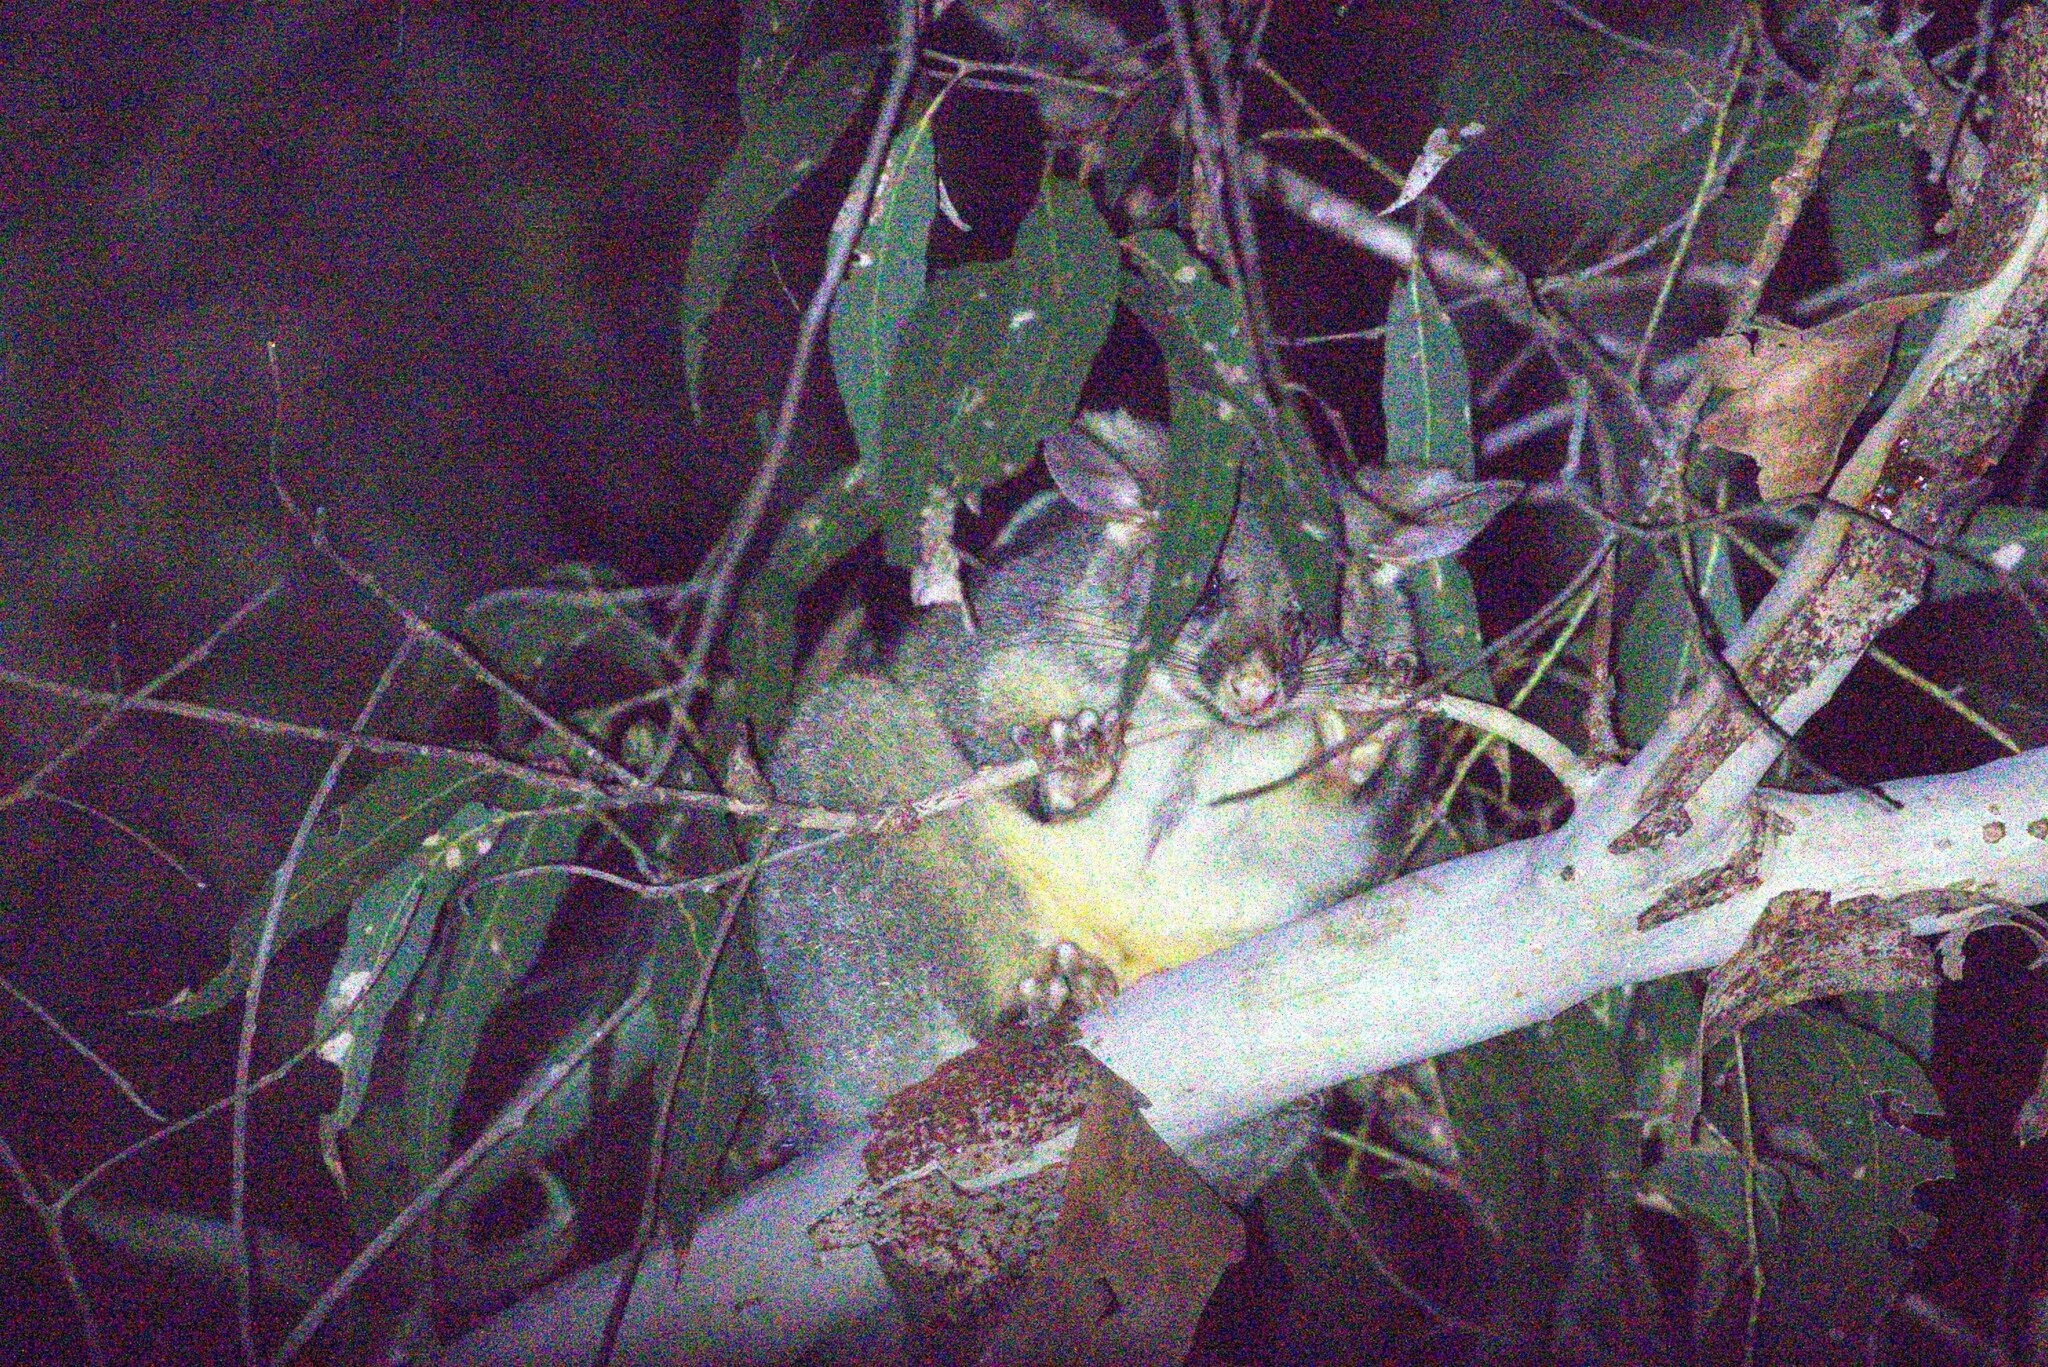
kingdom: Animalia
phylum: Chordata
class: Mammalia
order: Diprotodontia
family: Phalangeridae
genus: Trichosurus
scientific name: Trichosurus vulpecula
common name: Common brushtail
